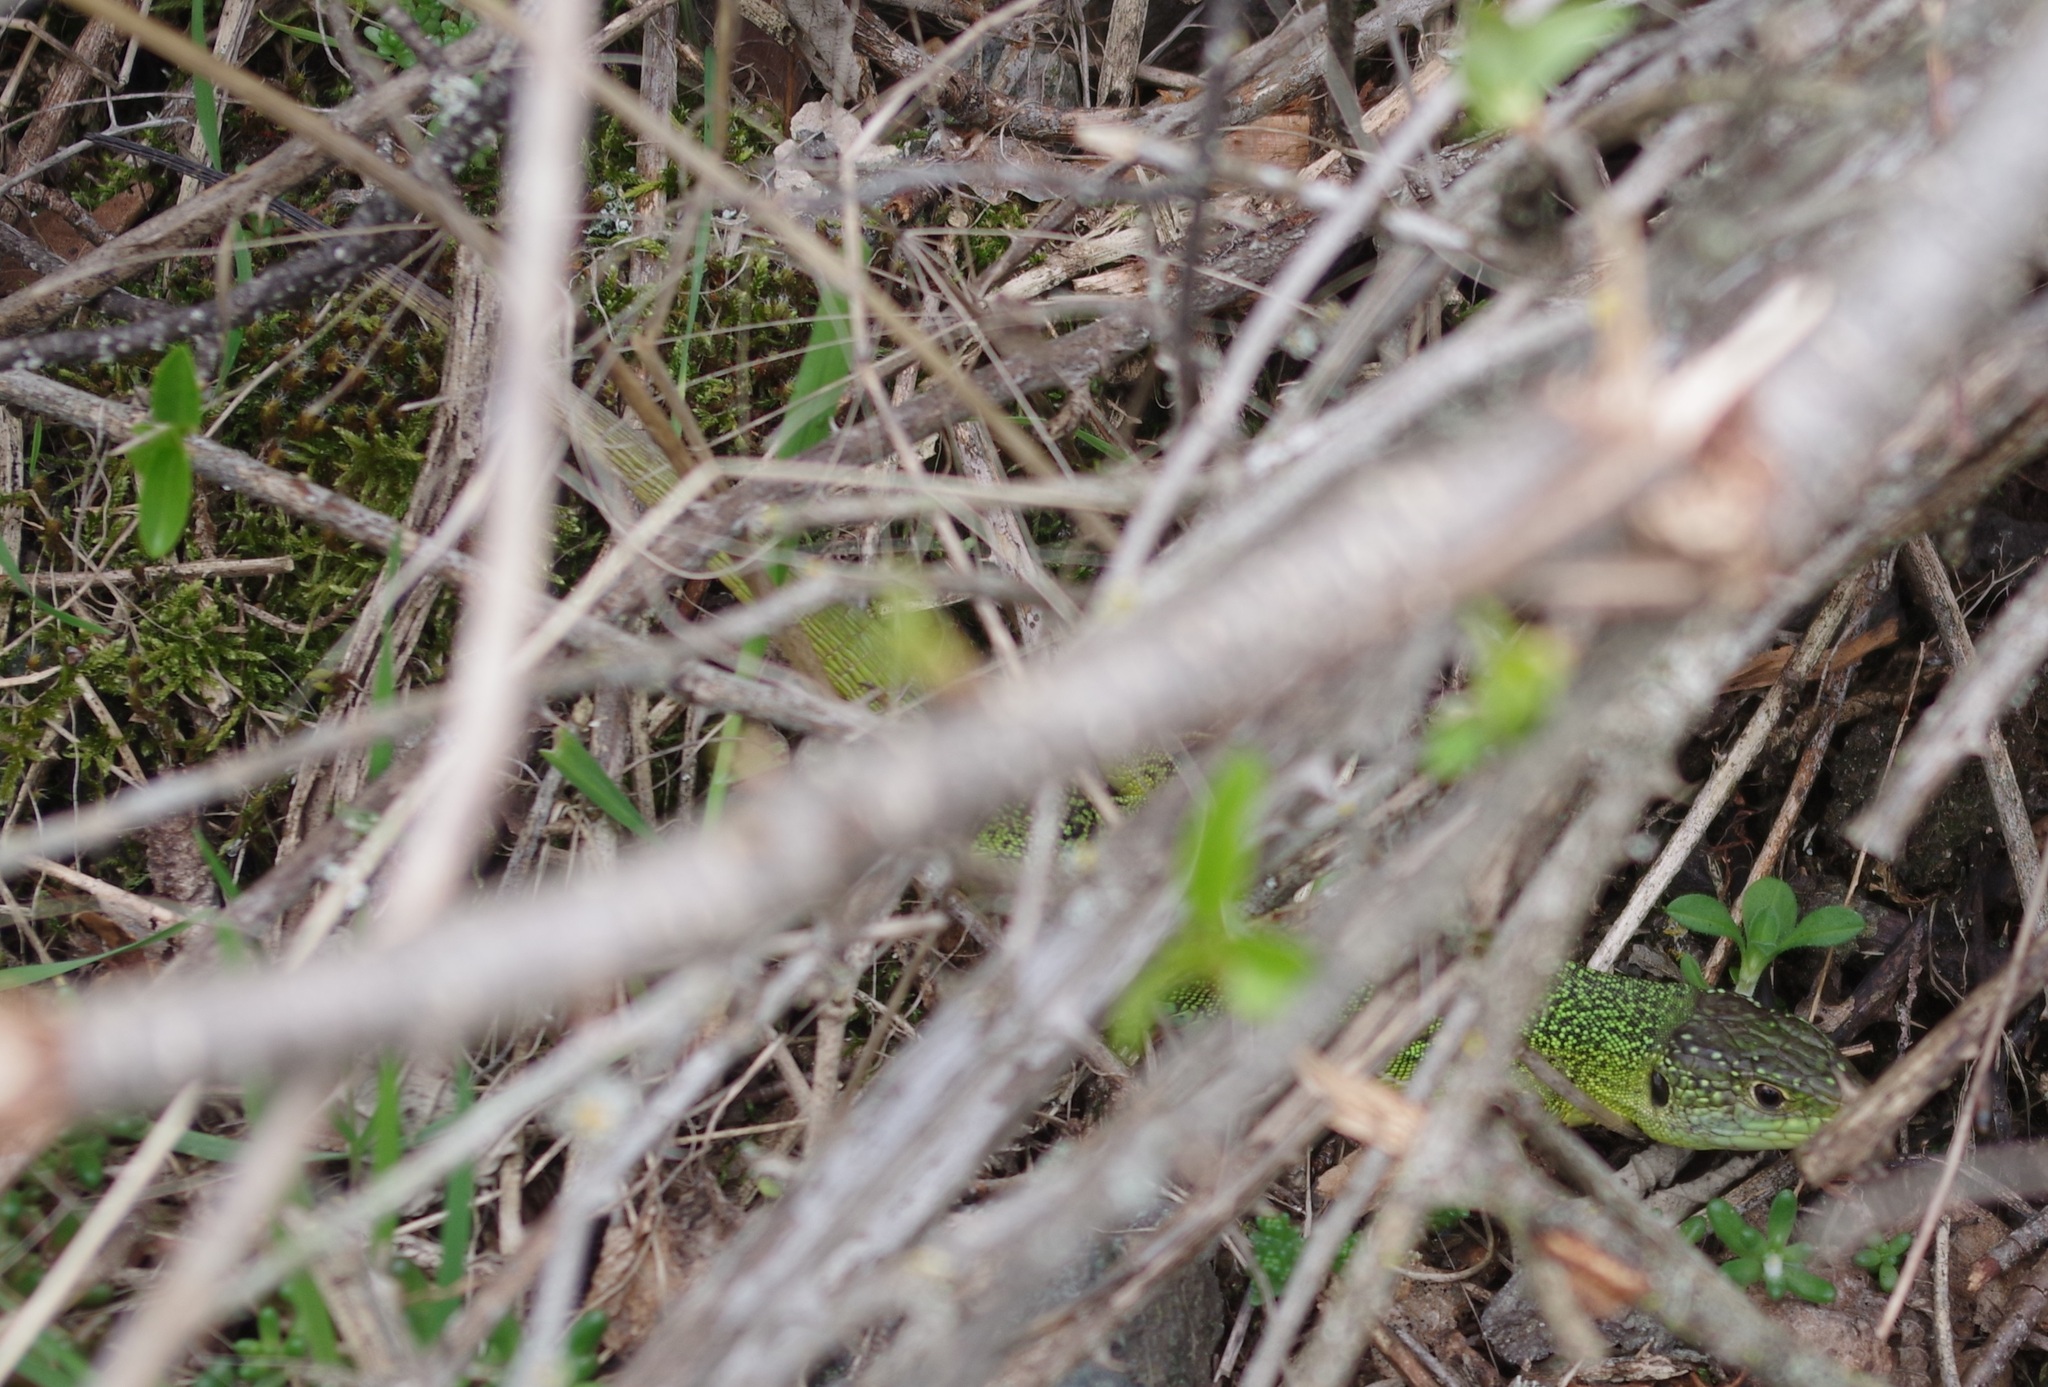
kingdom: Animalia
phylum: Chordata
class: Squamata
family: Lacertidae
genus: Lacerta
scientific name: Lacerta bilineata
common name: Western green lizard
